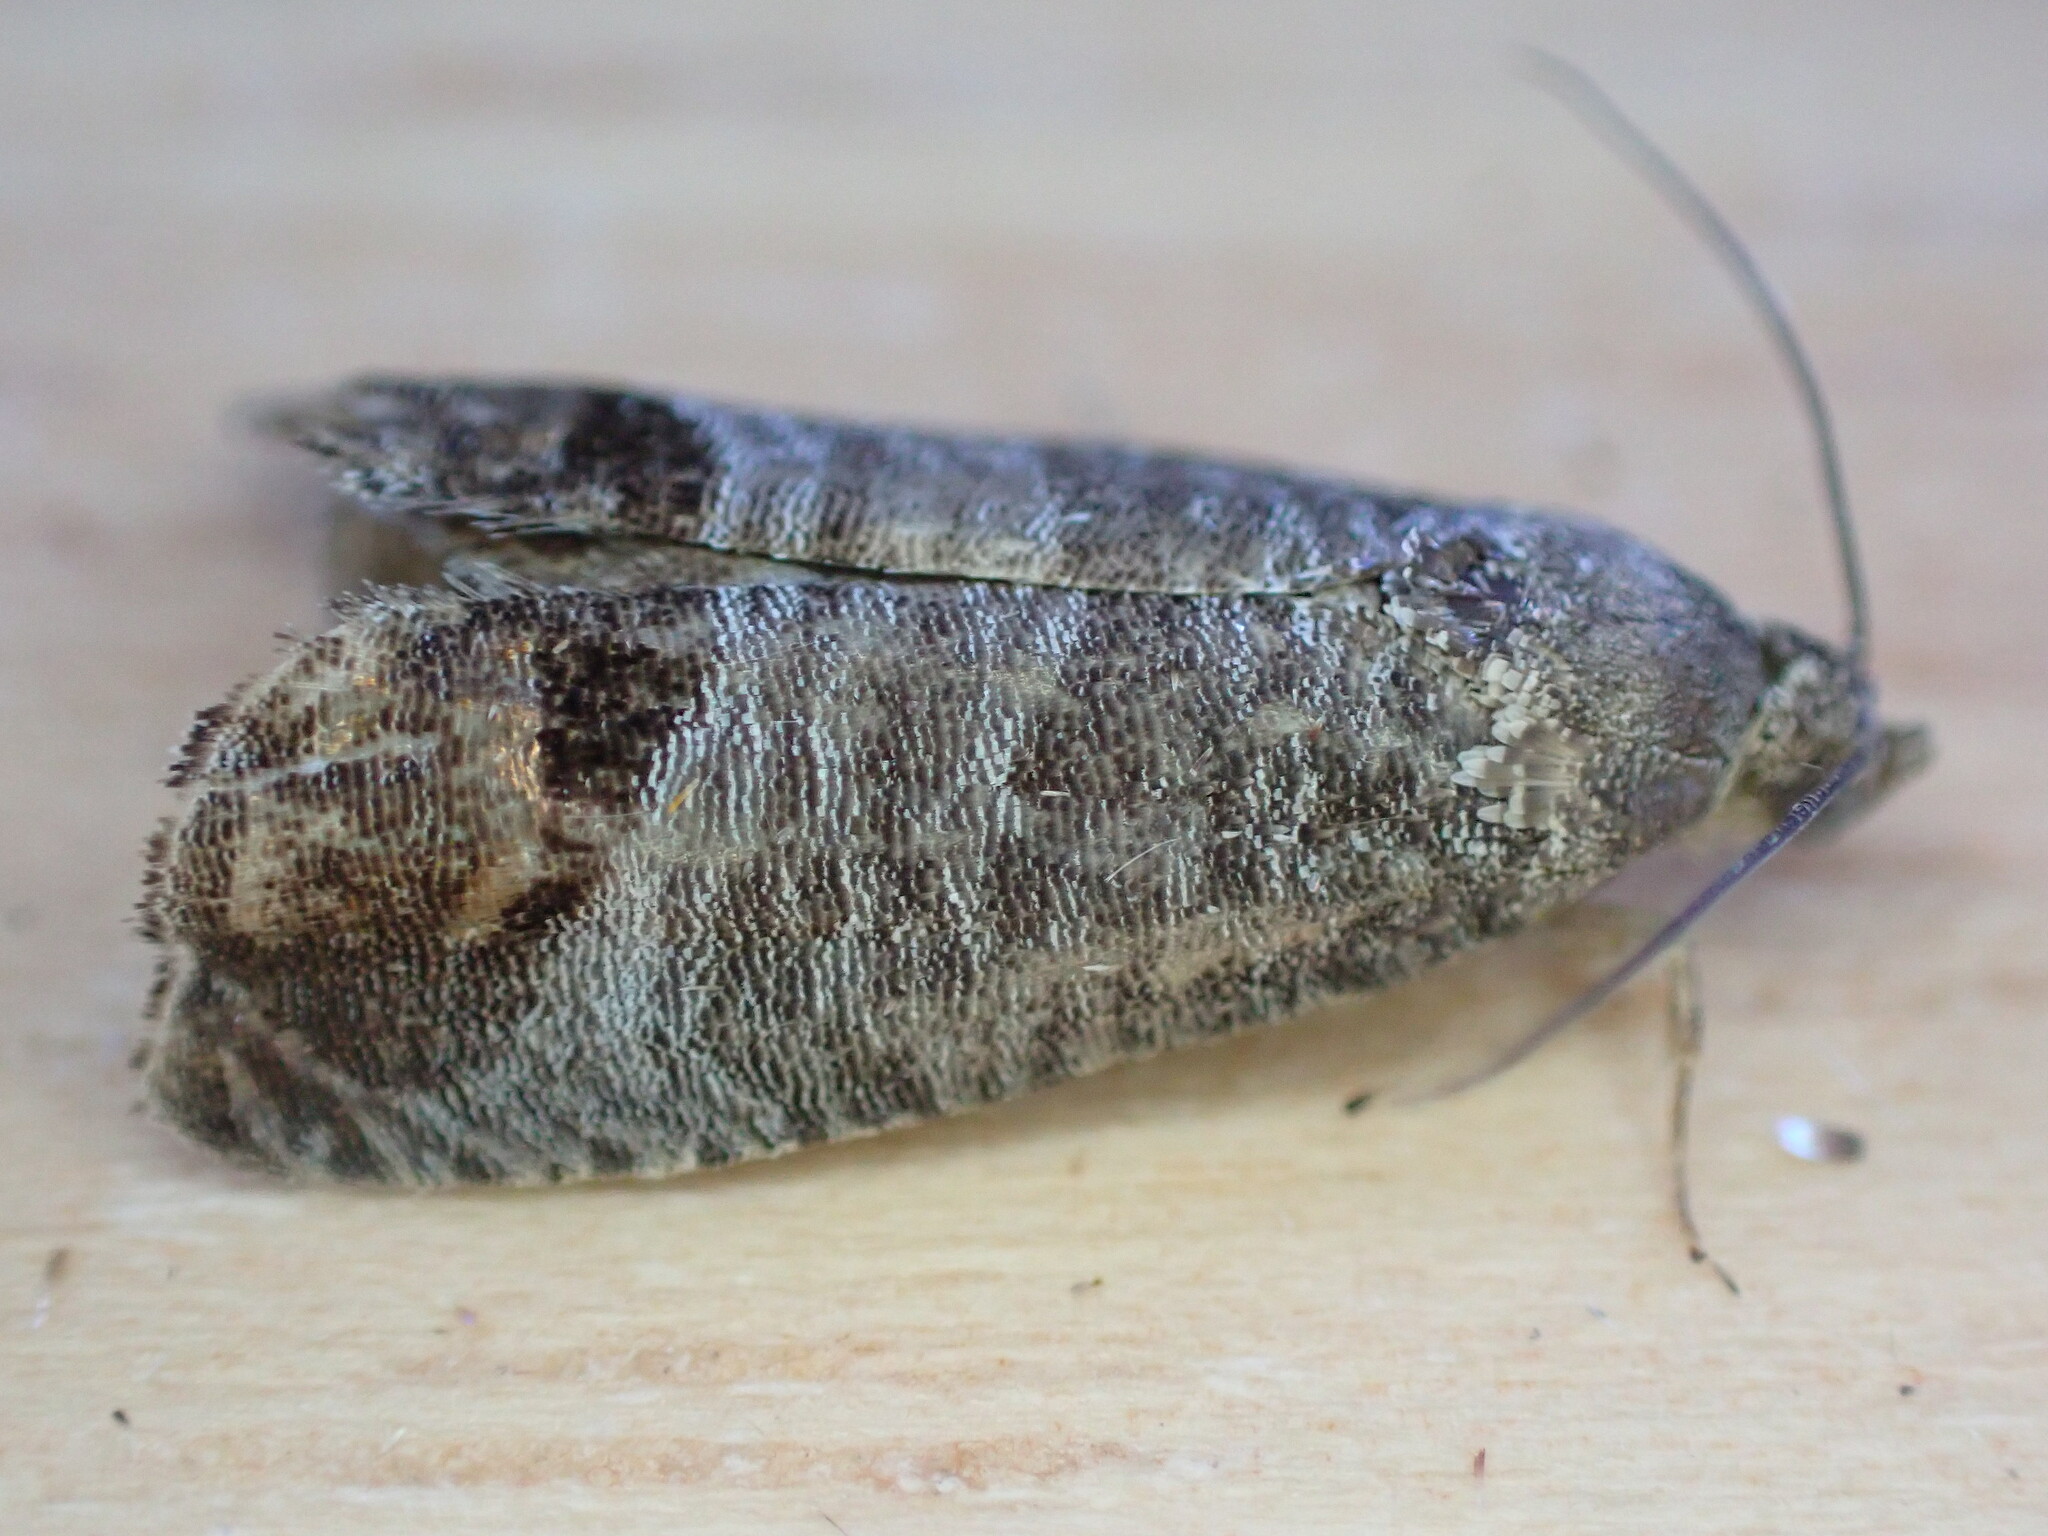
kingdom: Animalia
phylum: Arthropoda
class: Insecta
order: Lepidoptera
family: Tortricidae
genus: Cydia
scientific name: Cydia pomonella
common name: Codling moth
